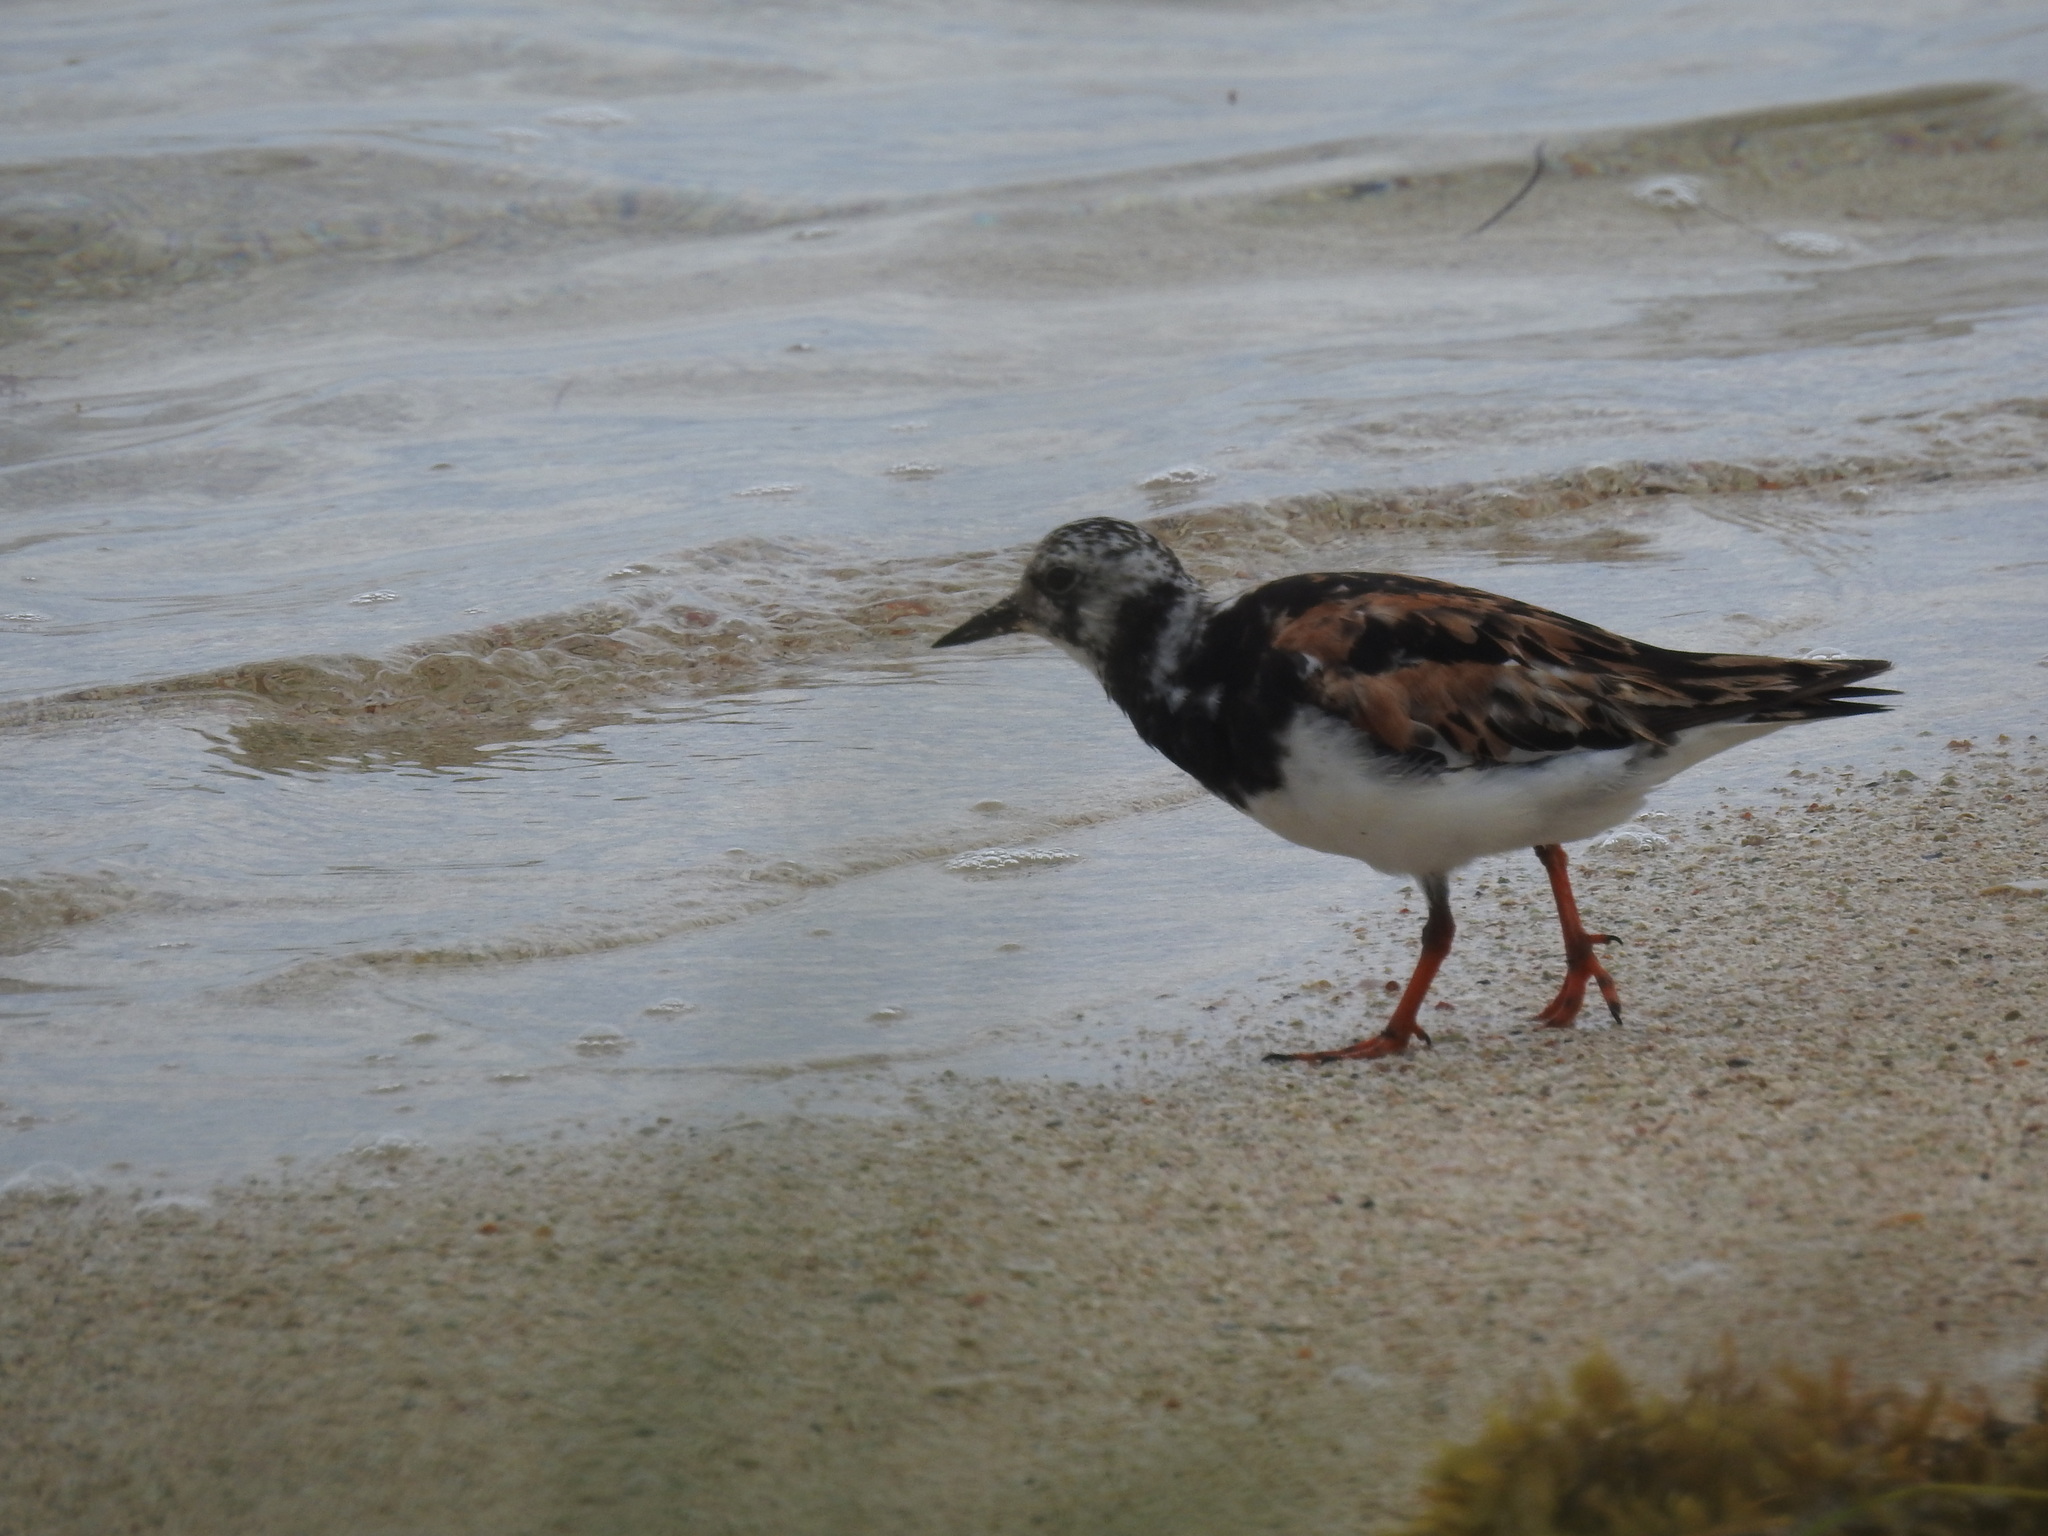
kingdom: Animalia
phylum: Chordata
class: Aves
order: Charadriiformes
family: Scolopacidae
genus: Arenaria
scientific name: Arenaria interpres
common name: Ruddy turnstone
